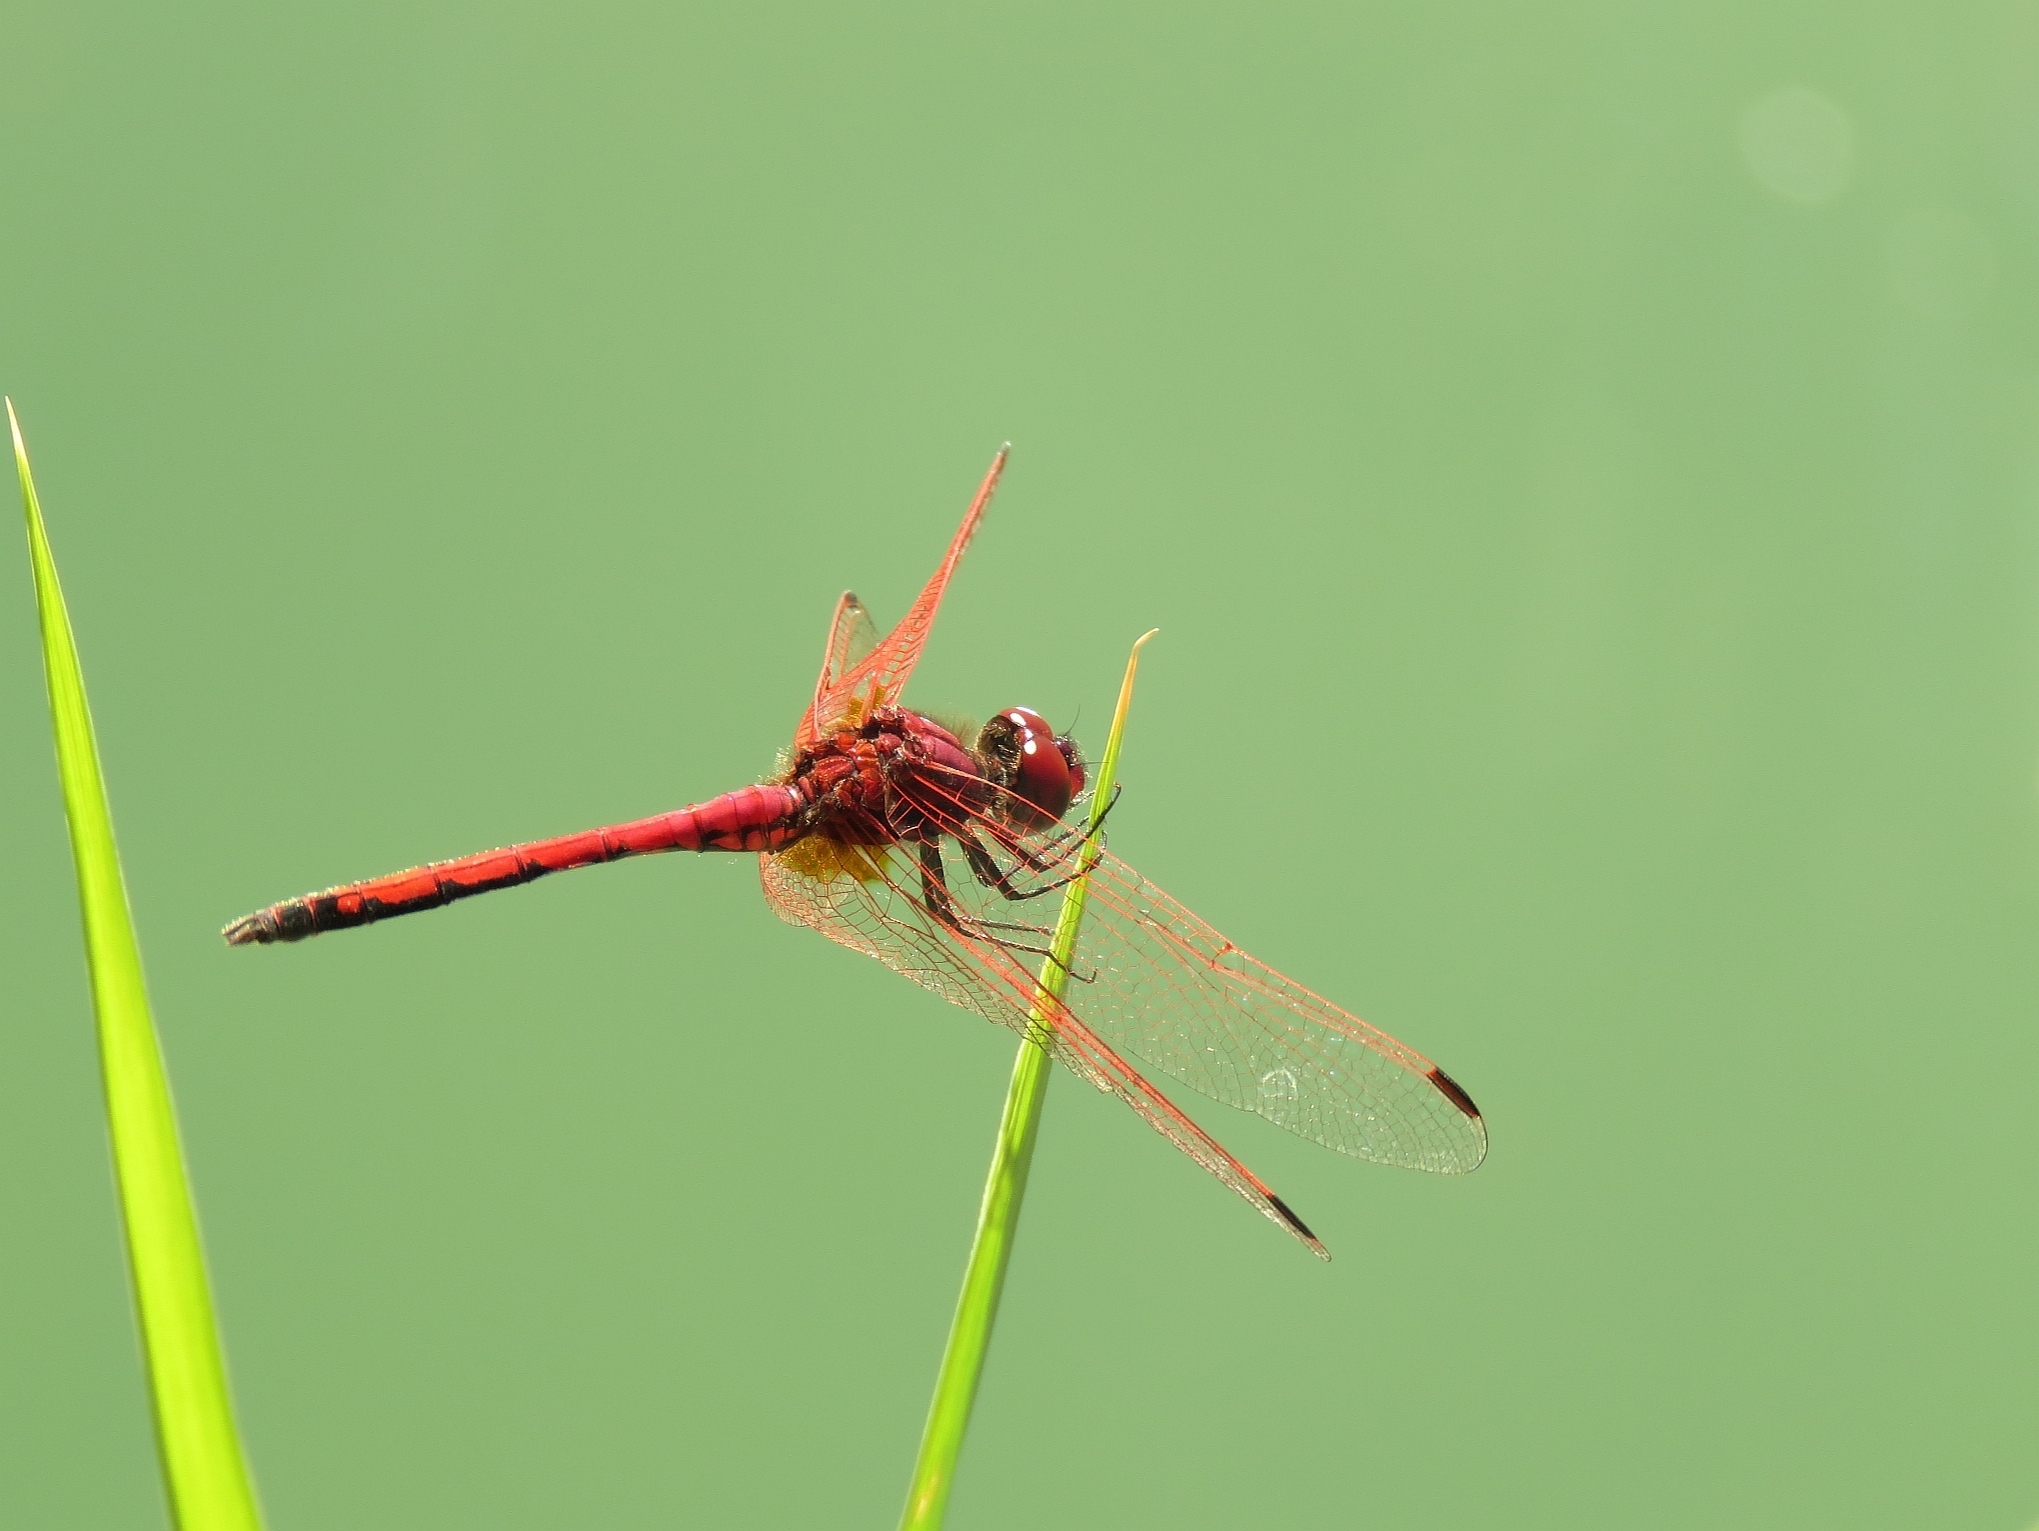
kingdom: Animalia
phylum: Arthropoda
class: Insecta
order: Odonata
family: Libellulidae
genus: Trithemis
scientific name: Trithemis arteriosa
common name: Red-veined dropwing
